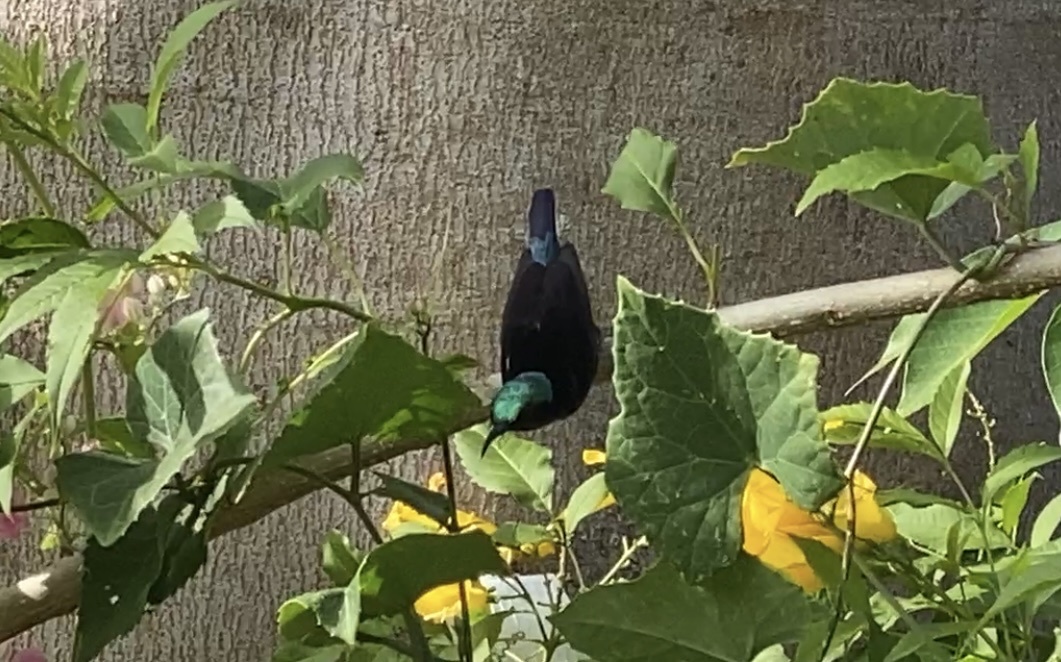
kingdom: Animalia
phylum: Chordata
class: Aves
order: Passeriformes
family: Nectariniidae
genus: Leptocoma
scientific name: Leptocoma brasiliana
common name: Van hasselt's sunbird
